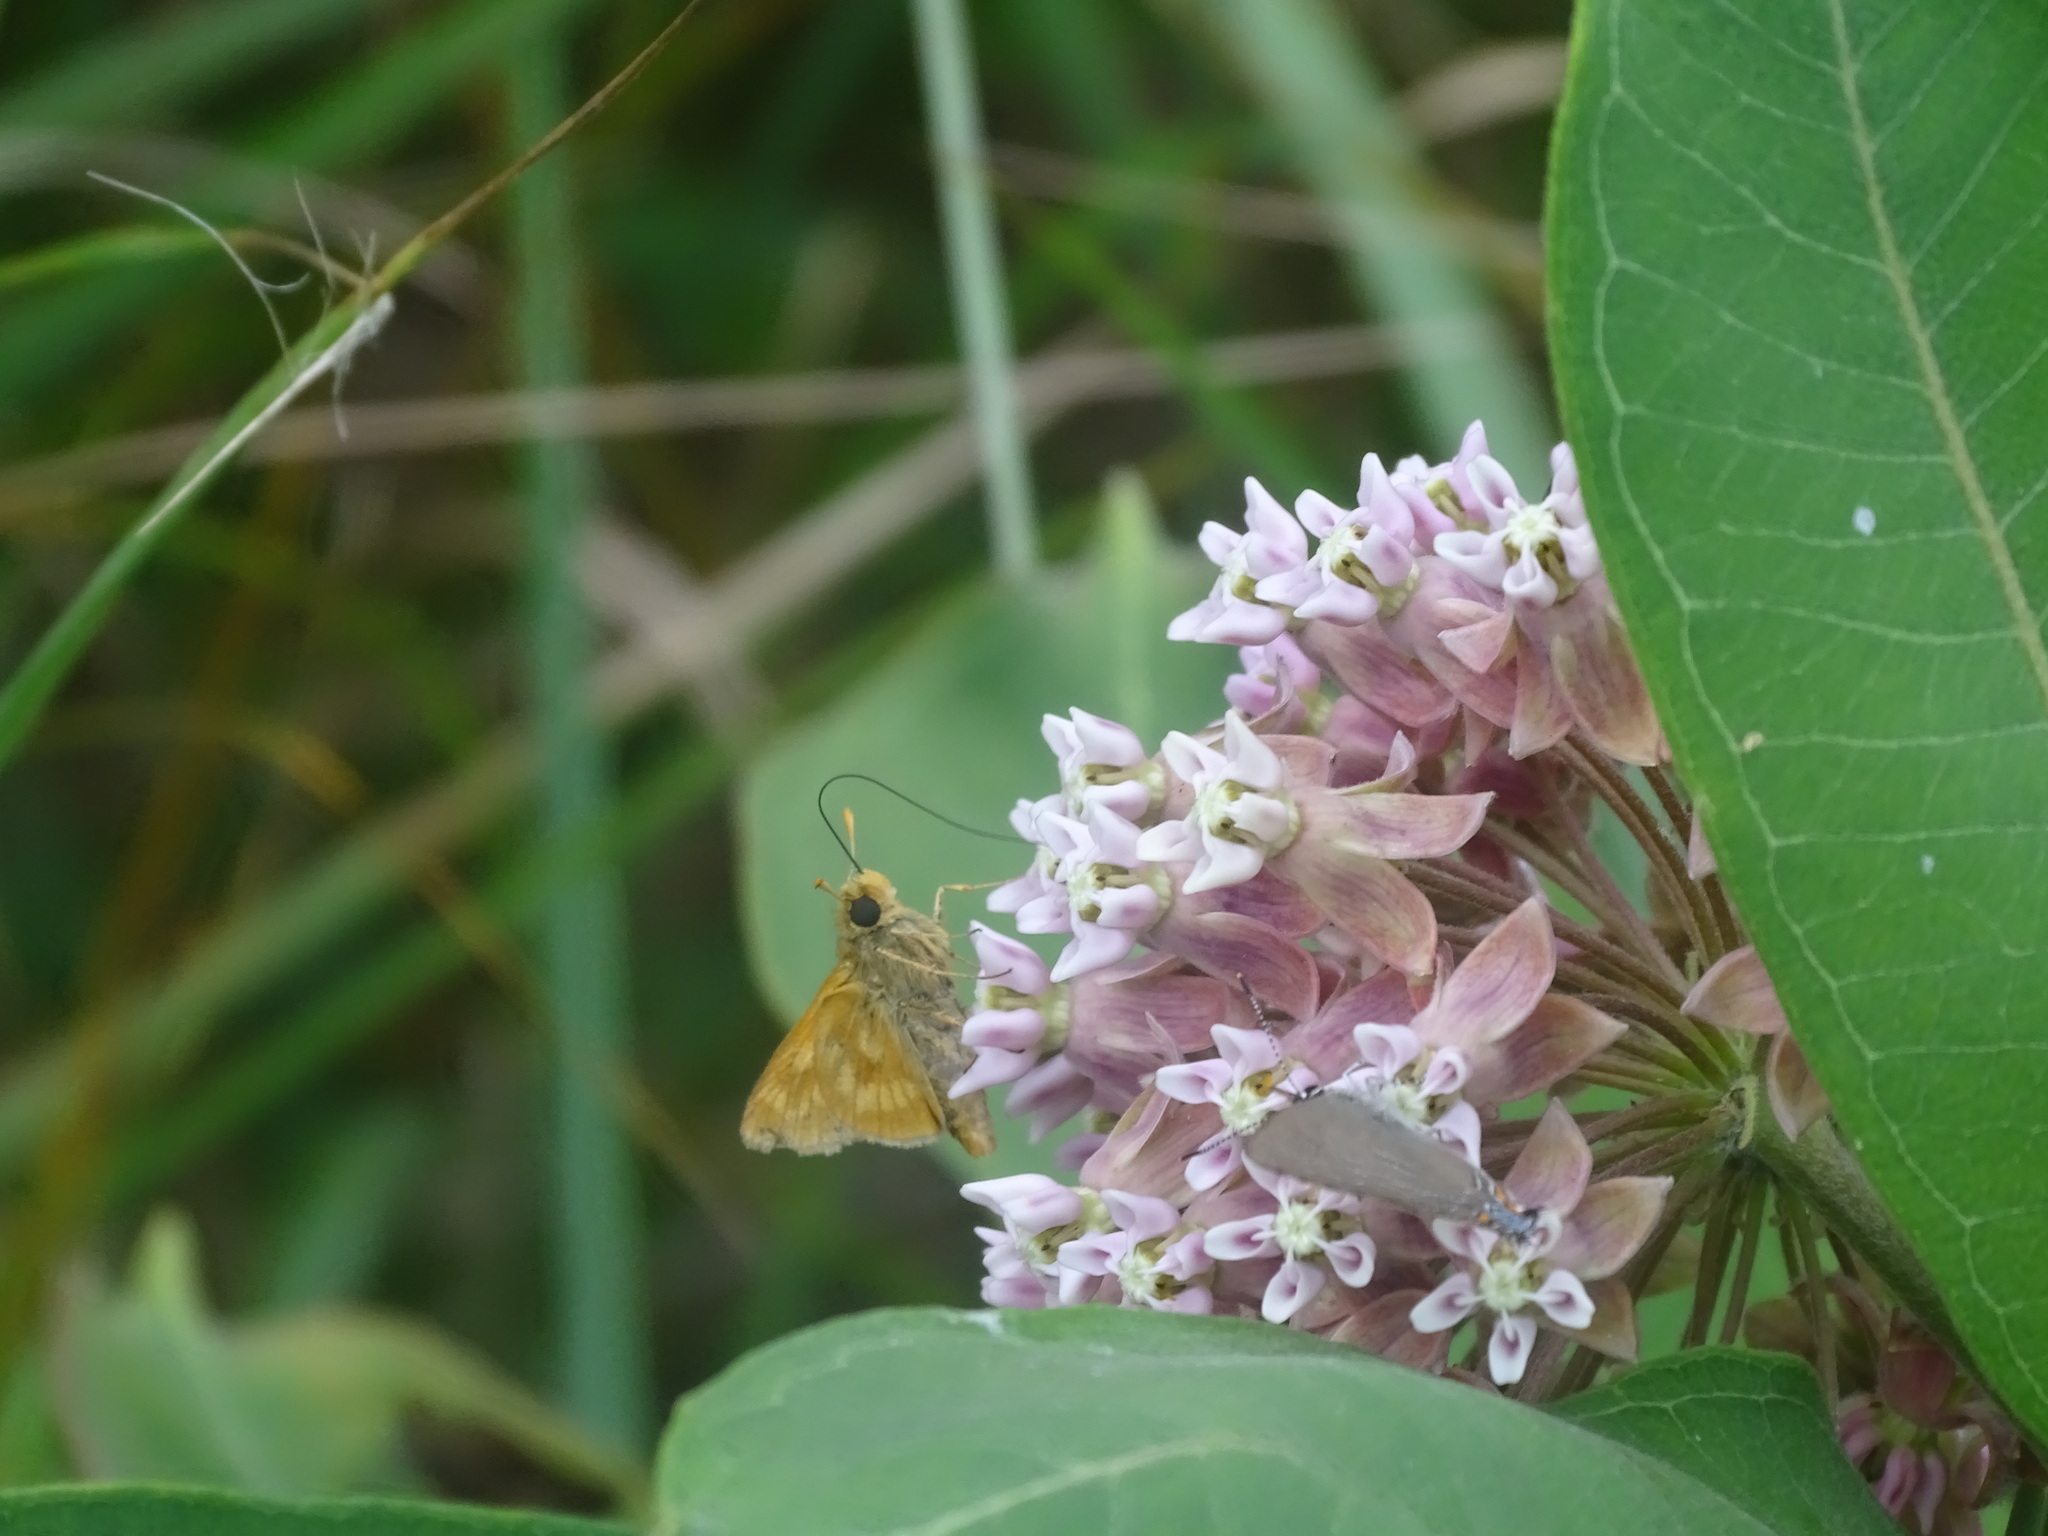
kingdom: Animalia
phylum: Arthropoda
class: Insecta
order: Lepidoptera
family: Hesperiidae
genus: Polites
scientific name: Polites mystic
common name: Long dash
